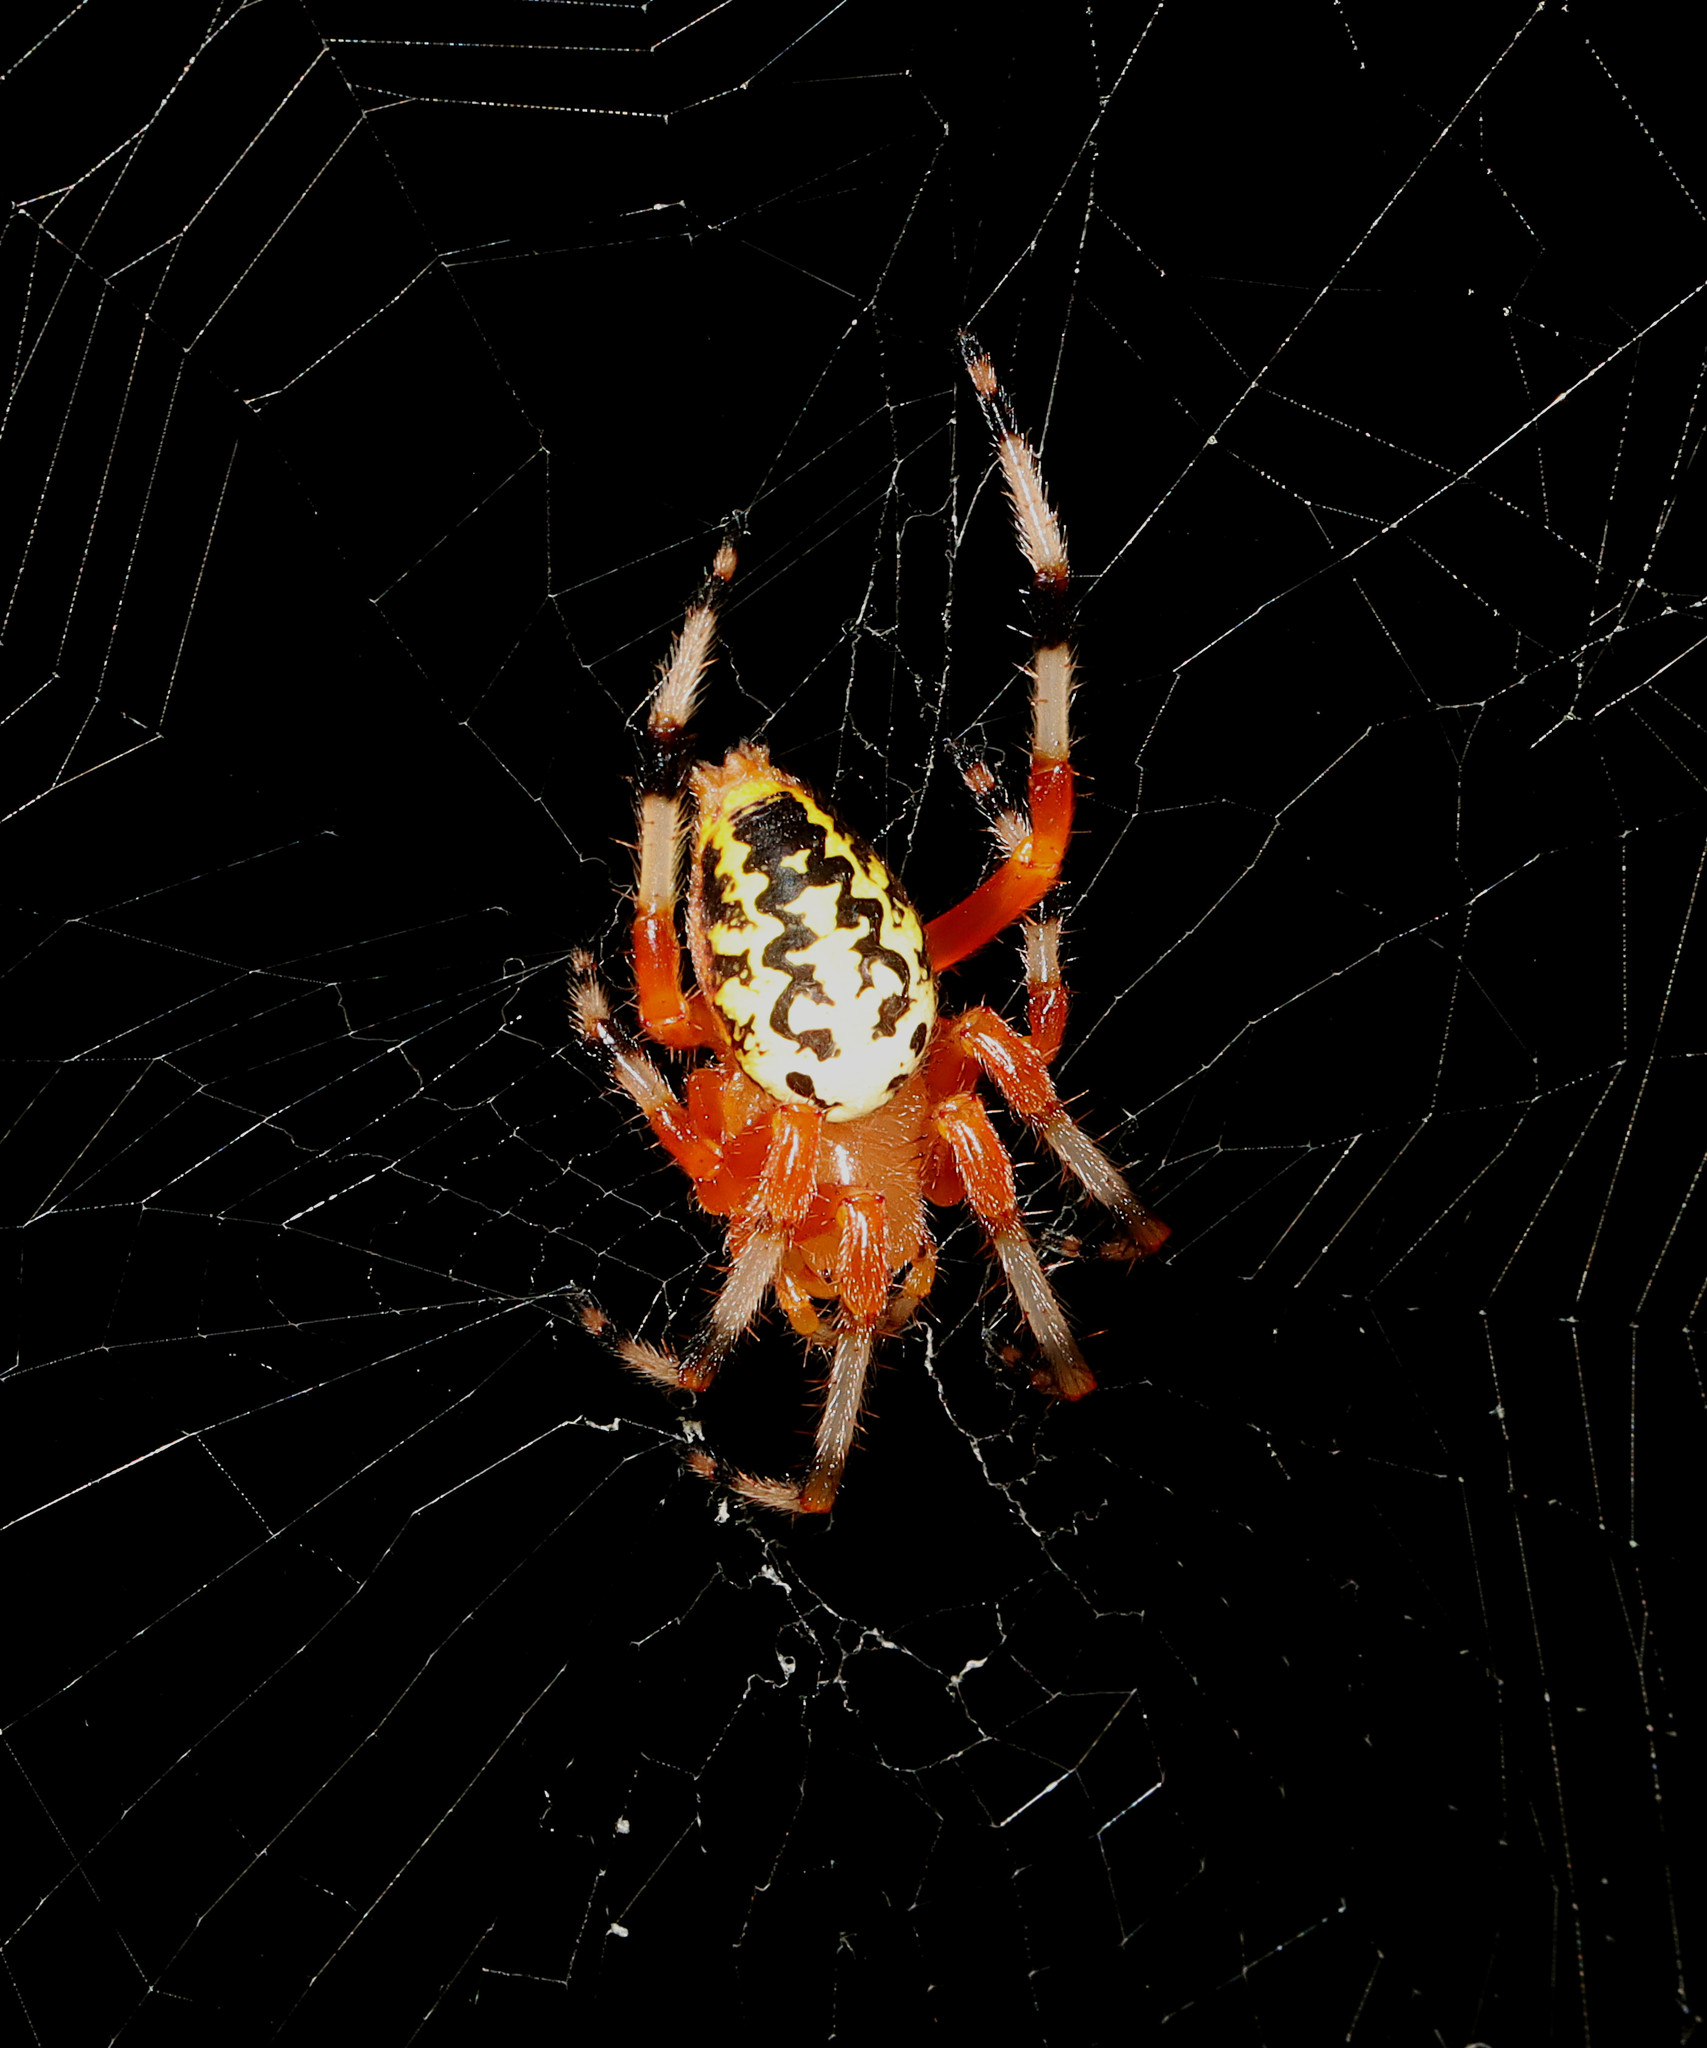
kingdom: Animalia
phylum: Arthropoda
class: Arachnida
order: Araneae
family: Araneidae
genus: Araneus
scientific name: Araneus marmoreus
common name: Marbled orbweaver
